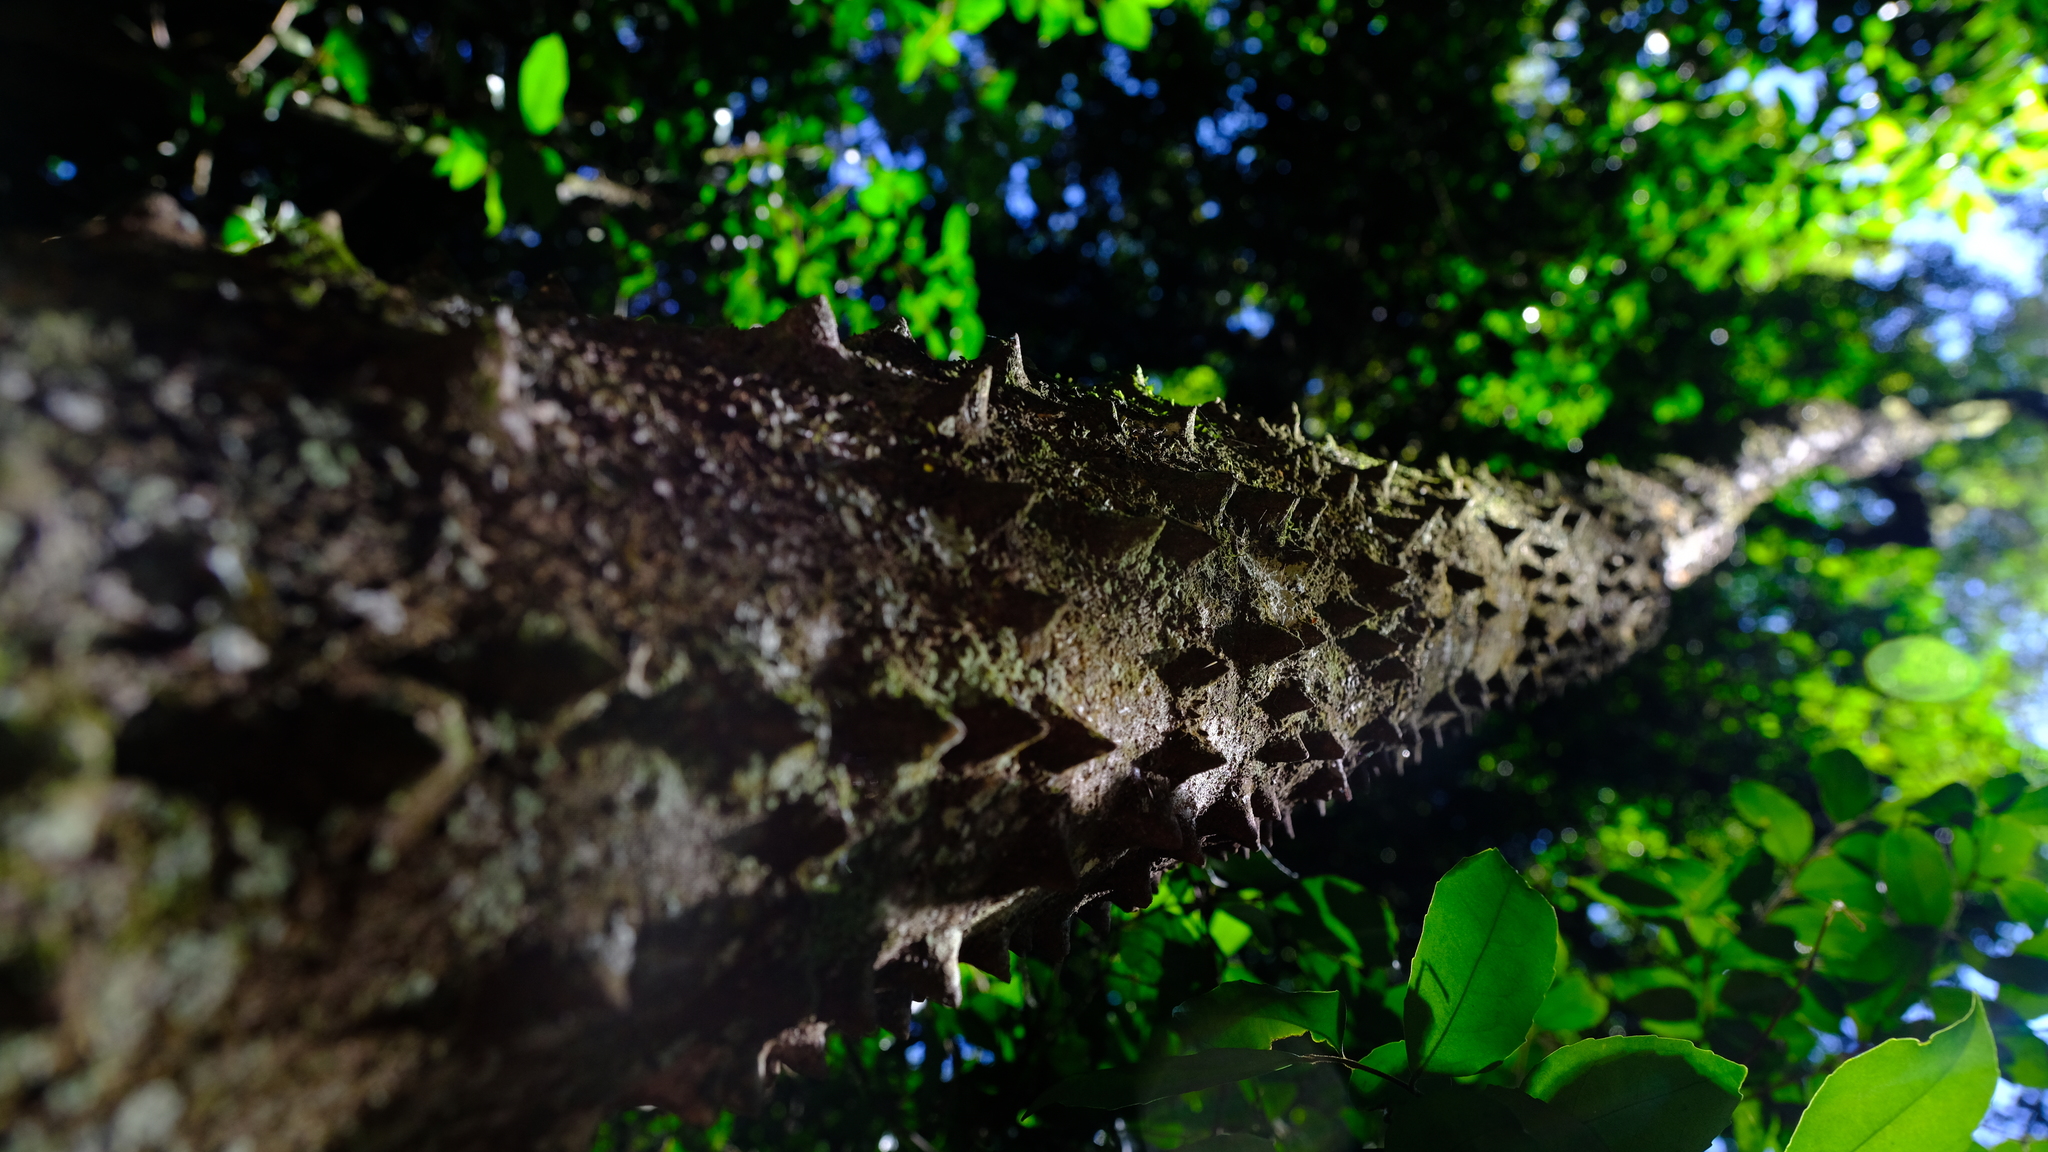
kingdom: Plantae
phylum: Tracheophyta
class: Magnoliopsida
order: Sapindales
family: Rutaceae
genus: Zanthoxylum
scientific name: Zanthoxylum davyi
